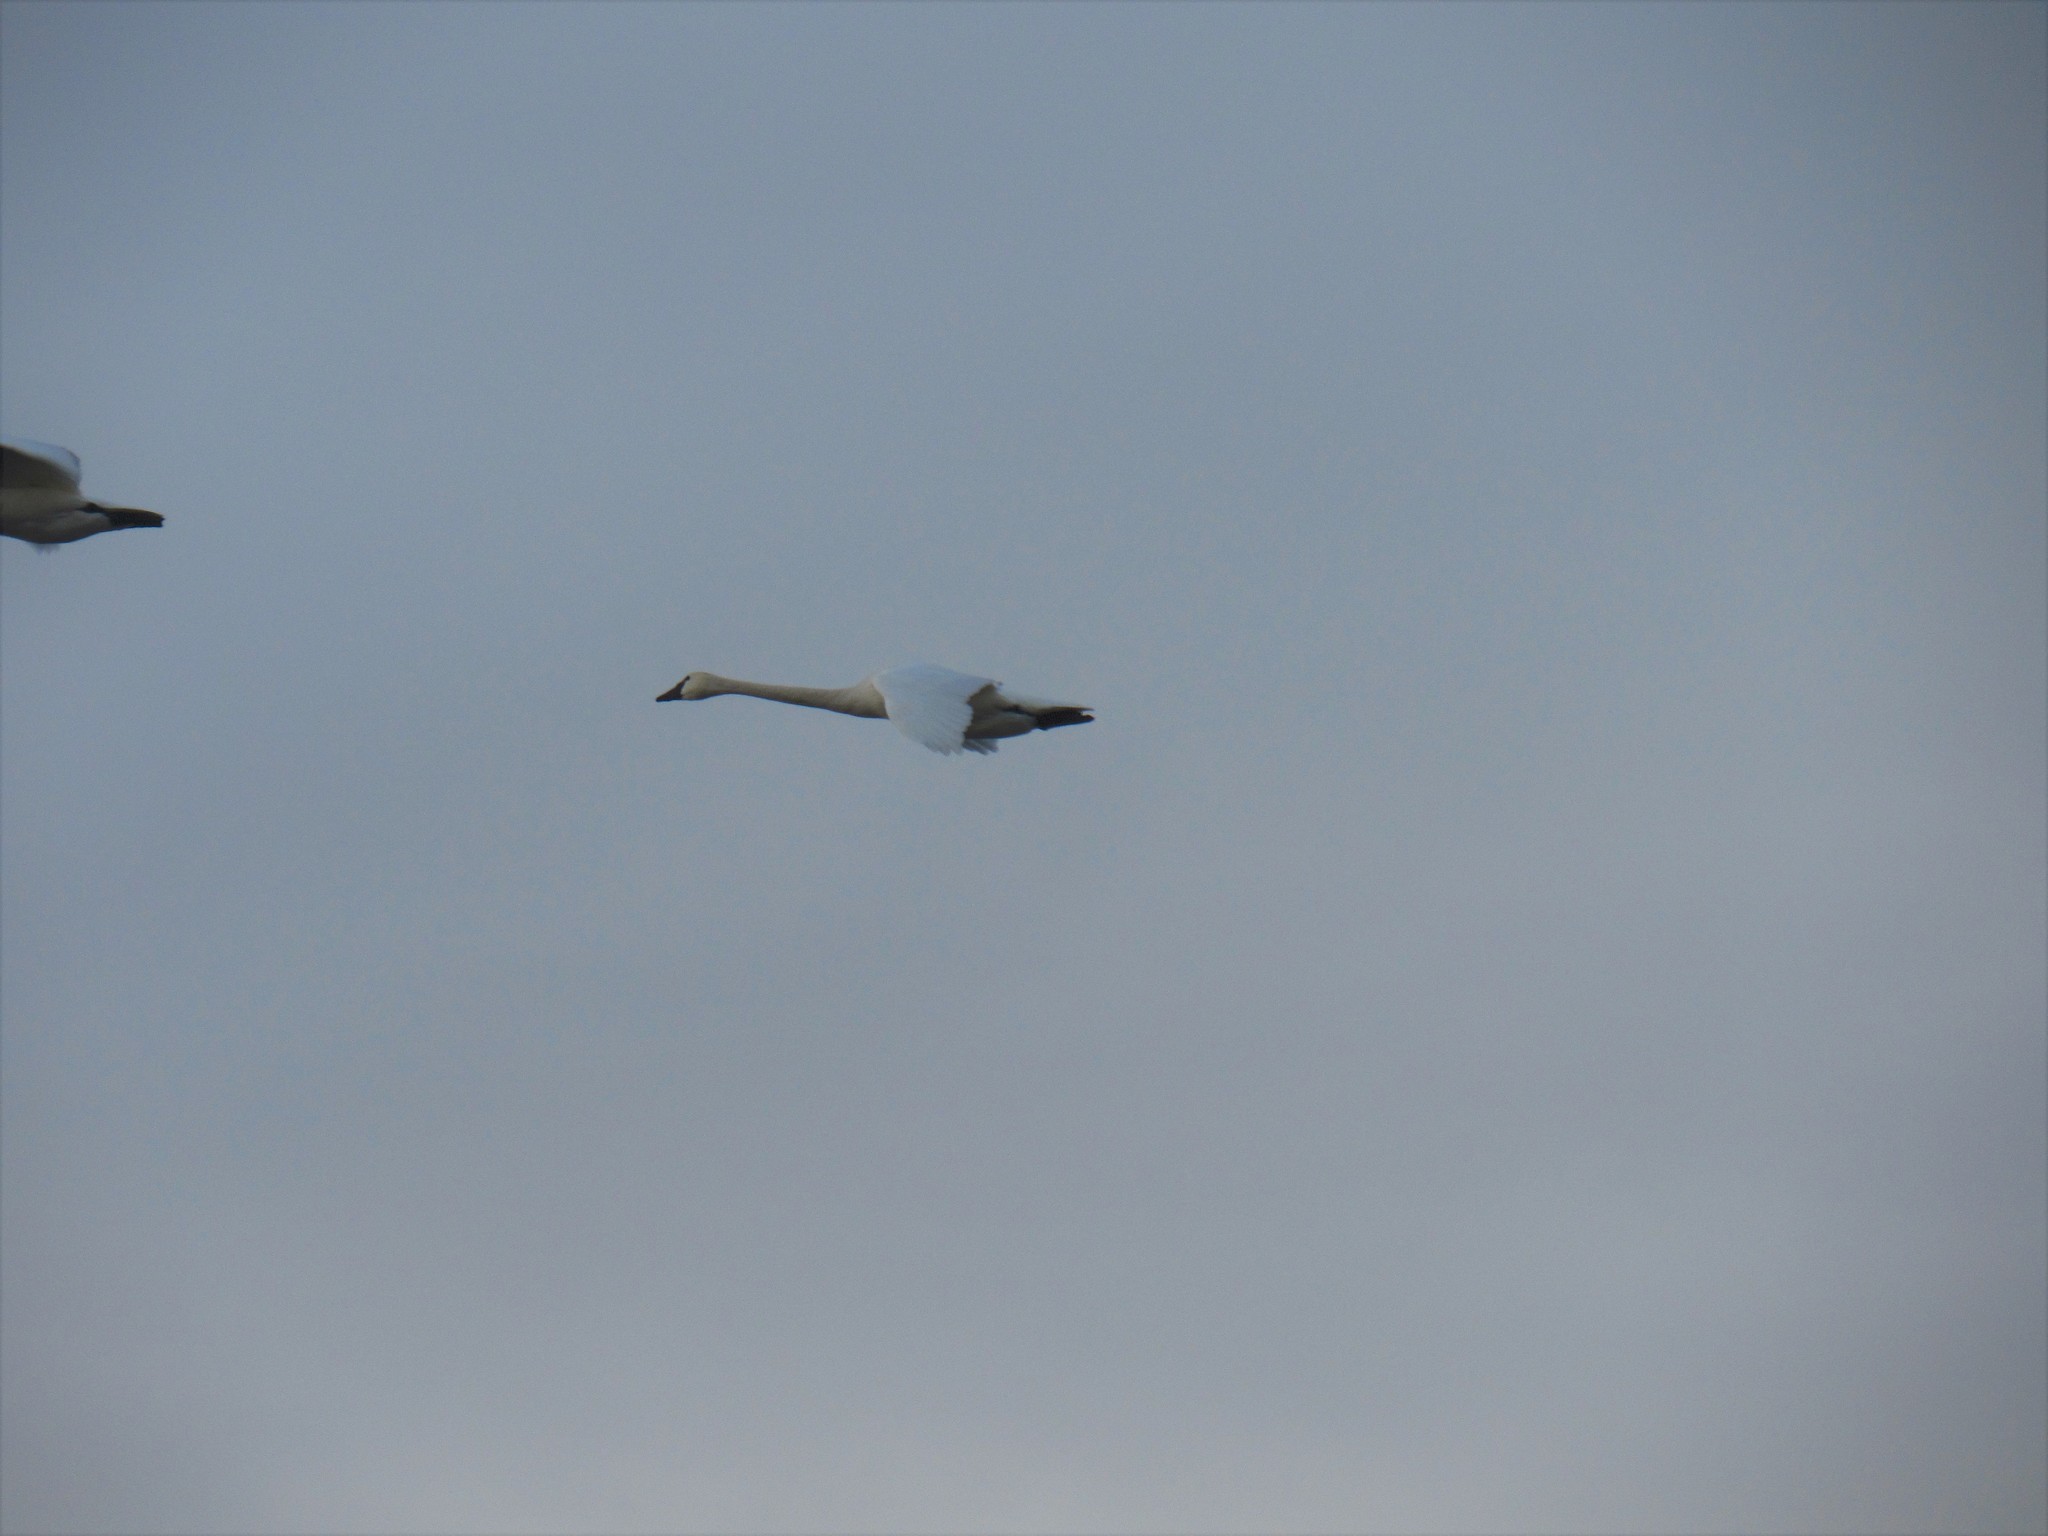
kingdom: Animalia
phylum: Chordata
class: Aves
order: Anseriformes
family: Anatidae
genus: Cygnus
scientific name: Cygnus columbianus
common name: Tundra swan
